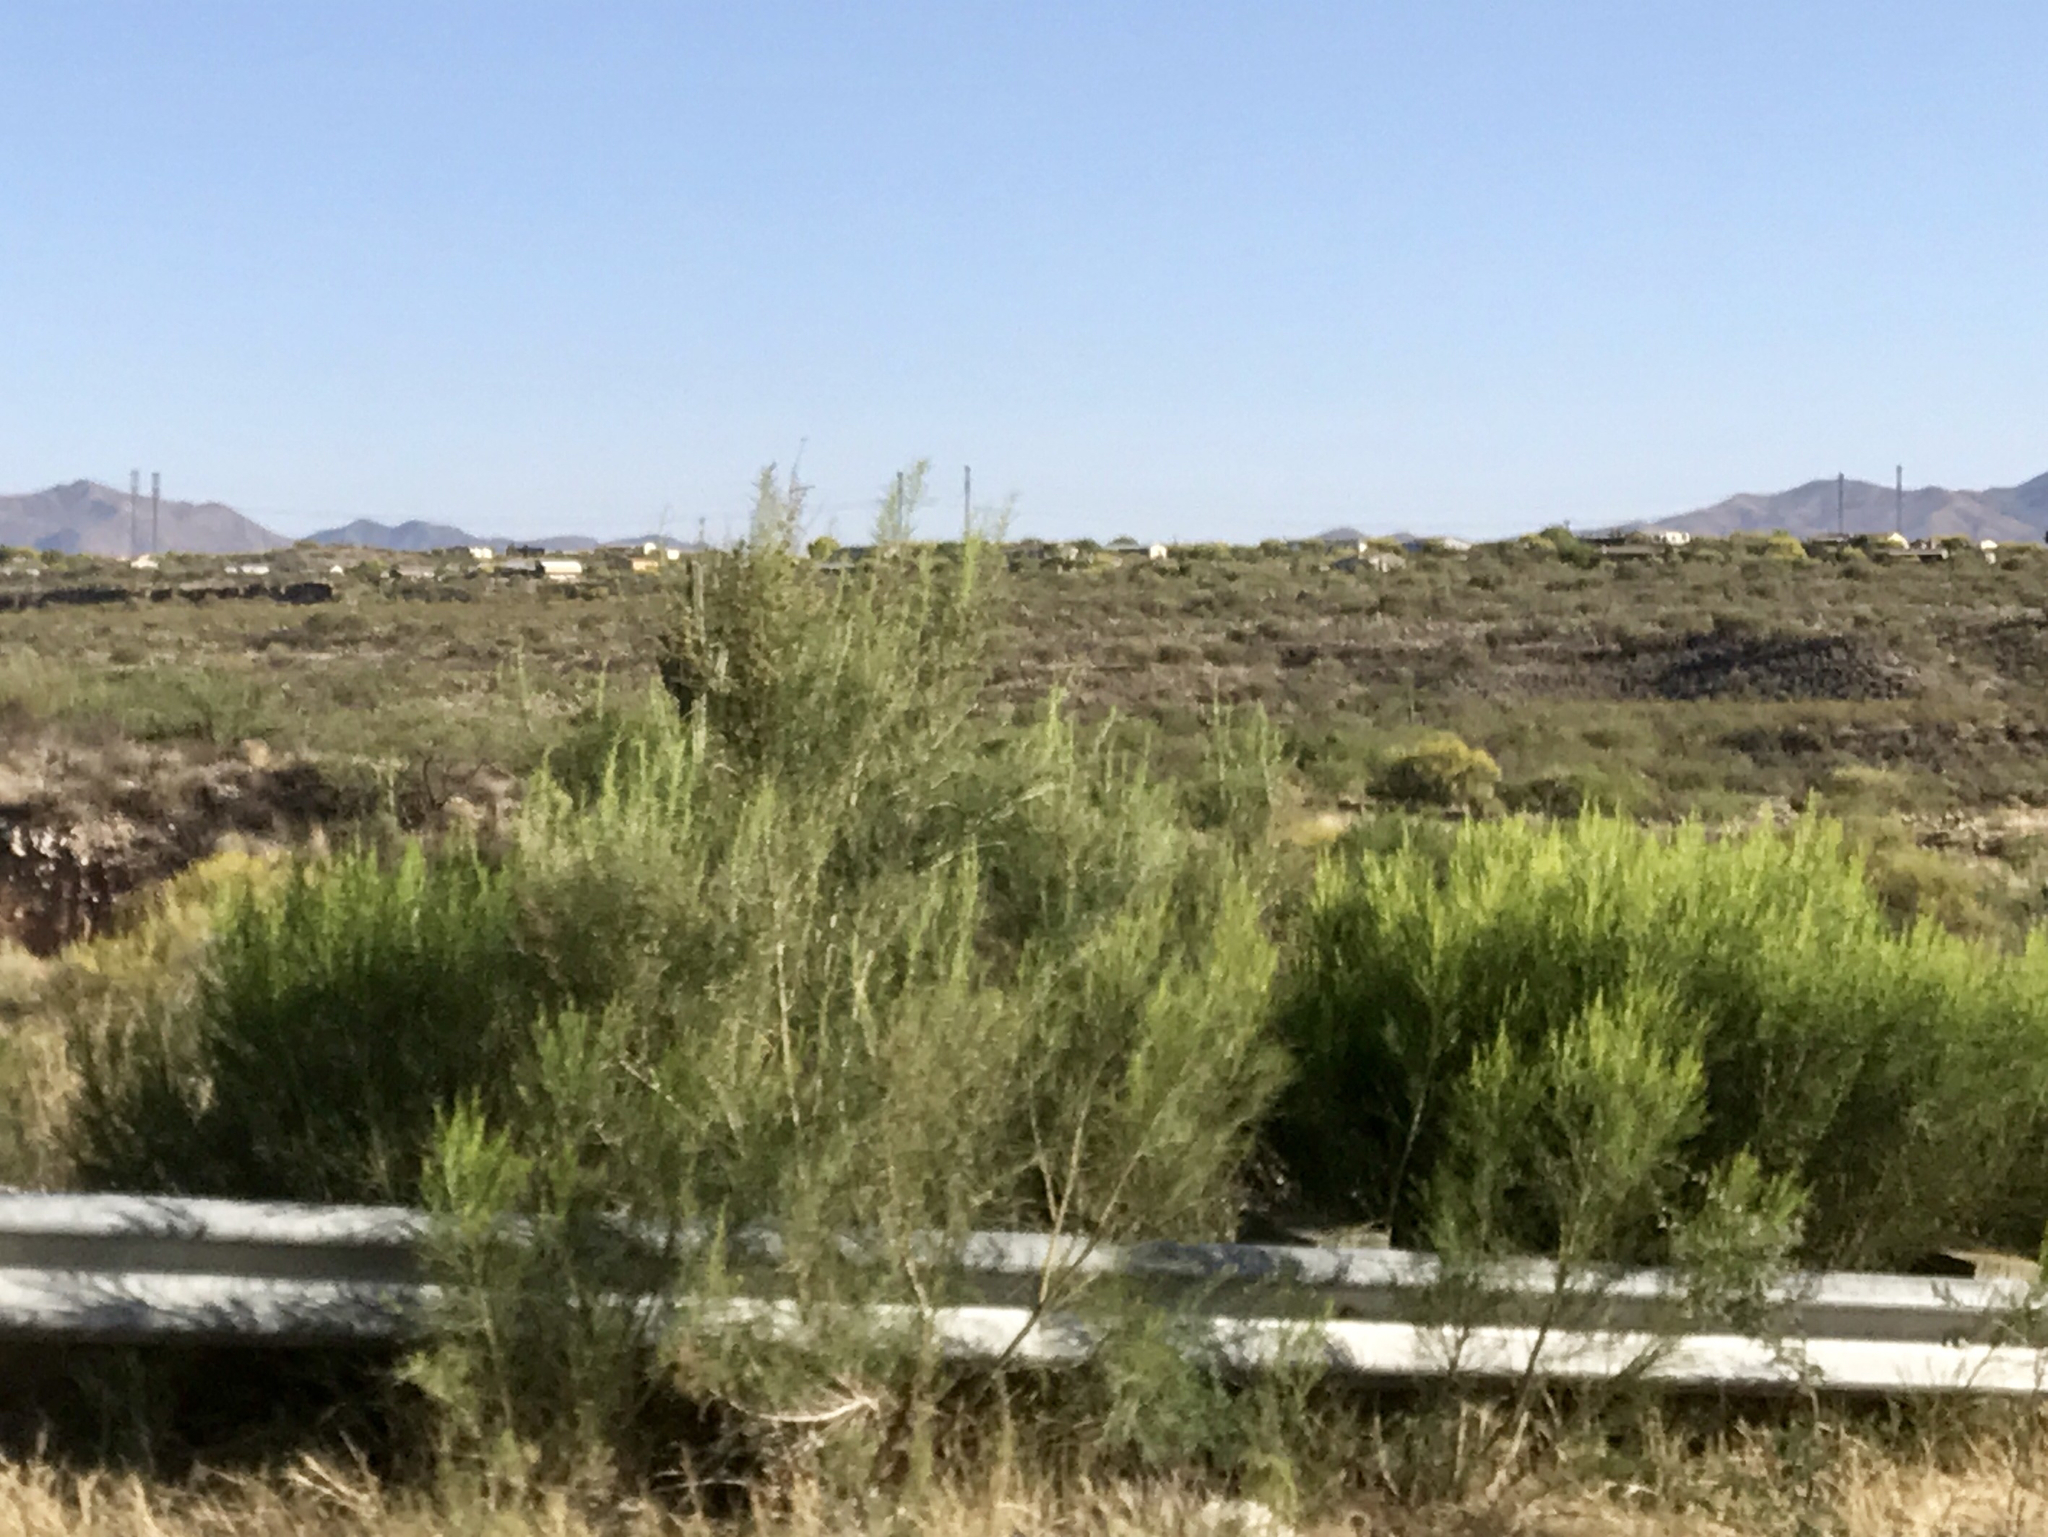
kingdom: Plantae
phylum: Tracheophyta
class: Magnoliopsida
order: Asterales
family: Asteraceae
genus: Baccharis
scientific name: Baccharis sarothroides
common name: Desert-broom
